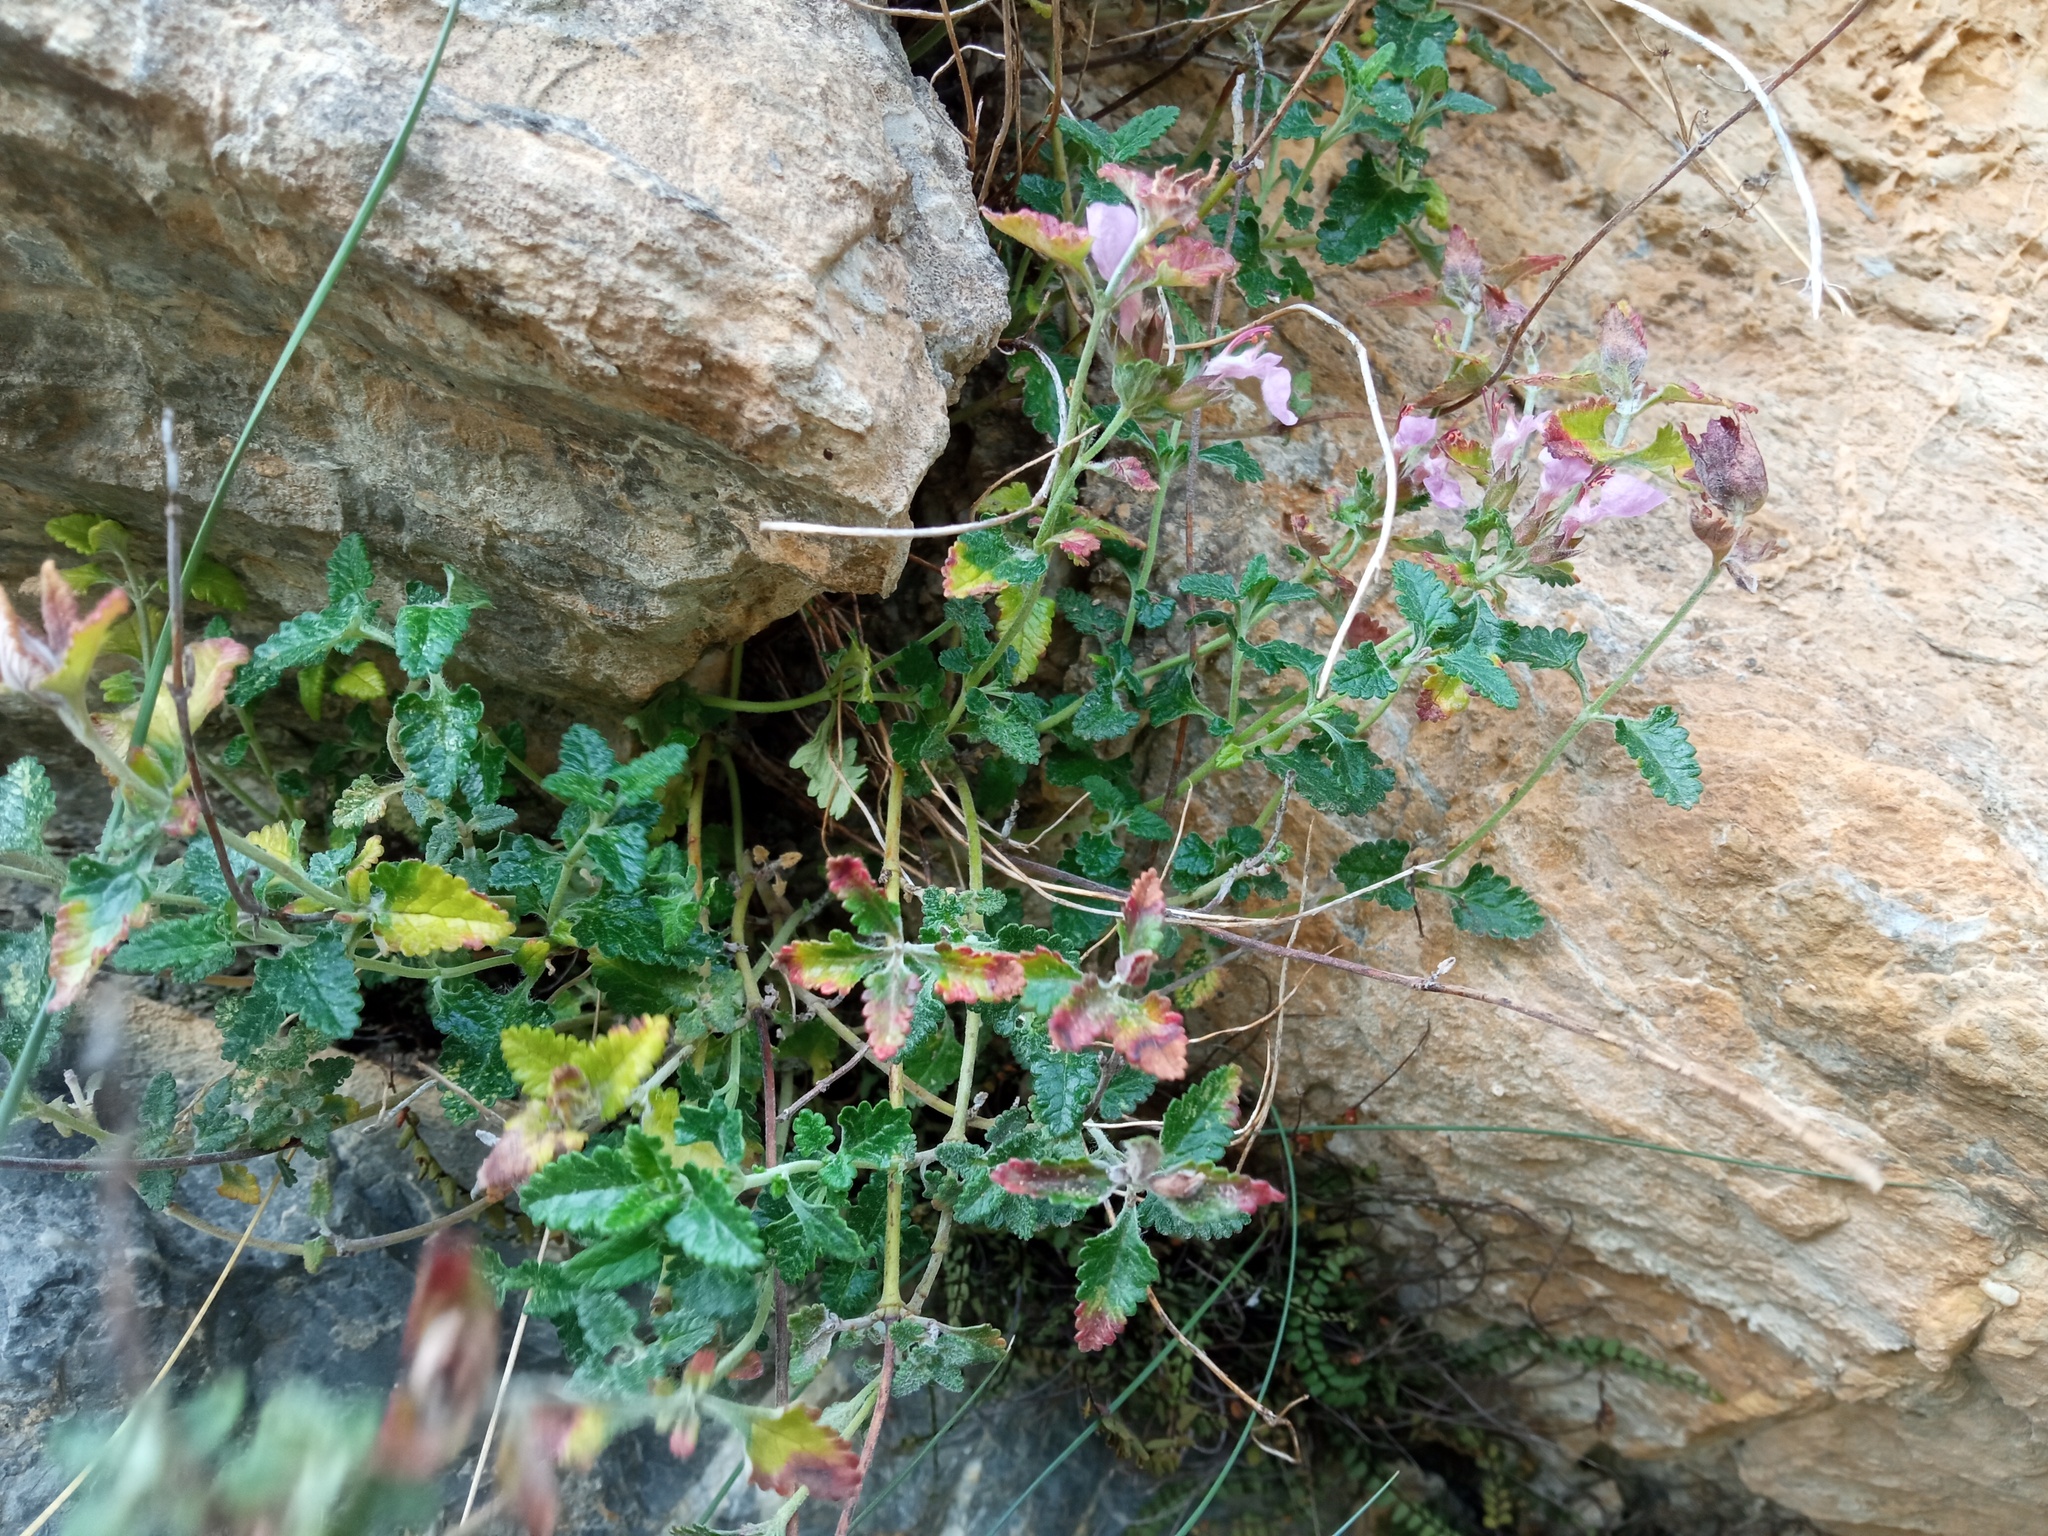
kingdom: Plantae
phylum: Tracheophyta
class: Magnoliopsida
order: Lamiales
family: Lamiaceae
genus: Teucrium
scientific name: Teucrium chamaedrys
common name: Wall germander
